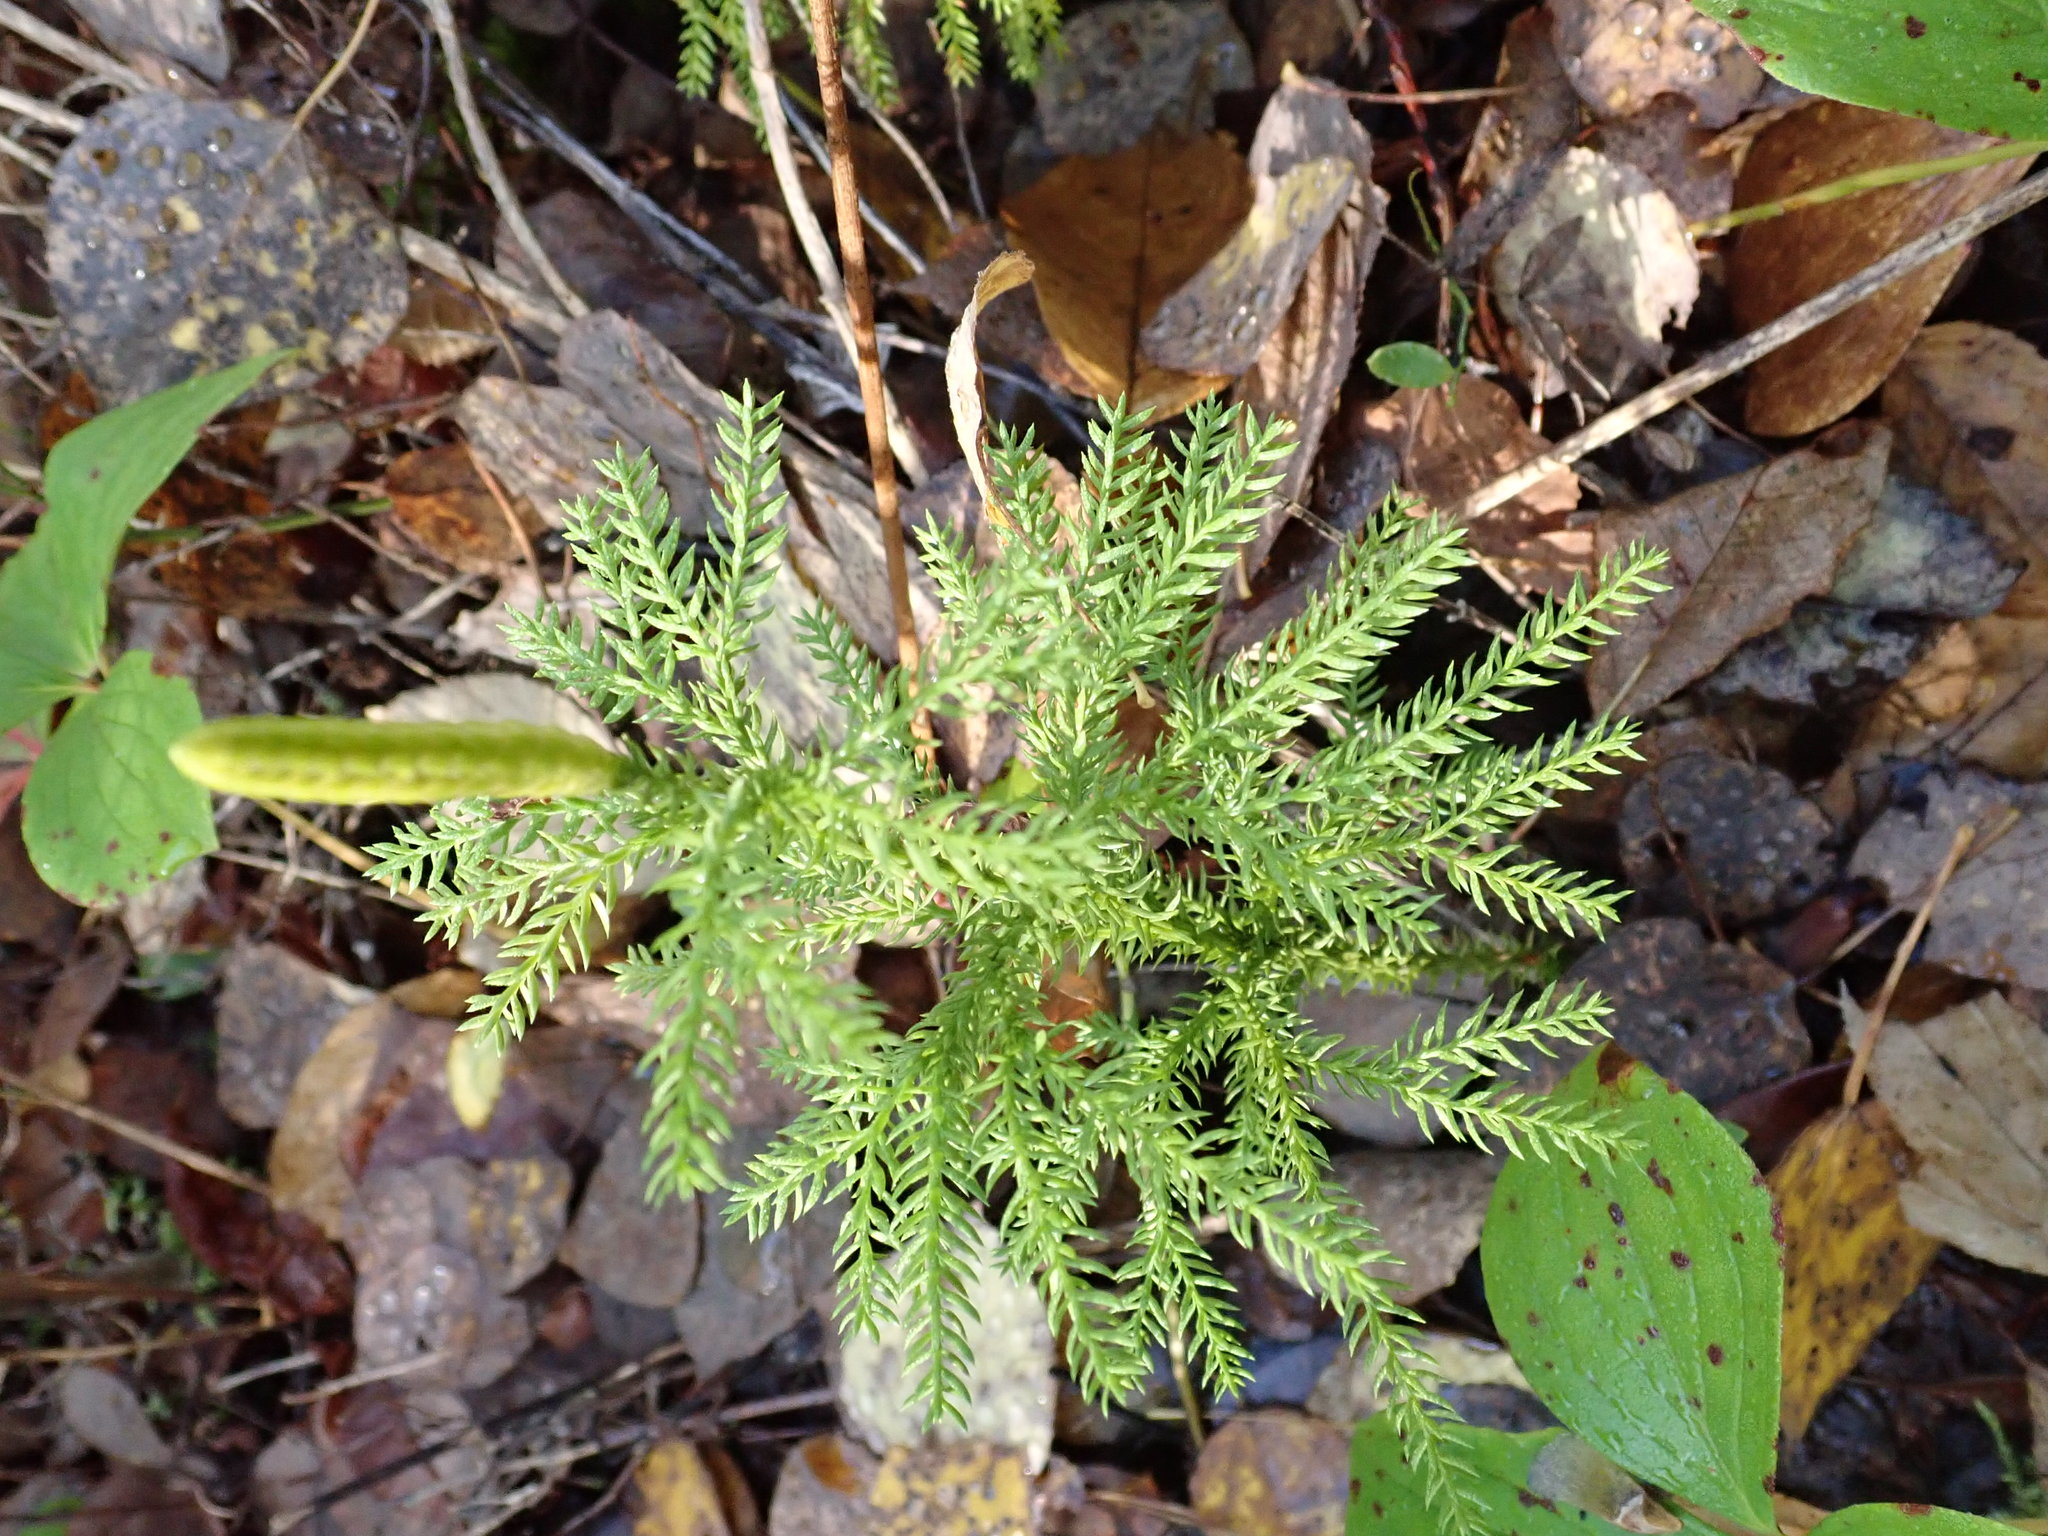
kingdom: Plantae
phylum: Tracheophyta
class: Lycopodiopsida
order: Lycopodiales
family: Lycopodiaceae
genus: Dendrolycopodium
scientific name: Dendrolycopodium dendroideum
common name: Northern tree-clubmoss
